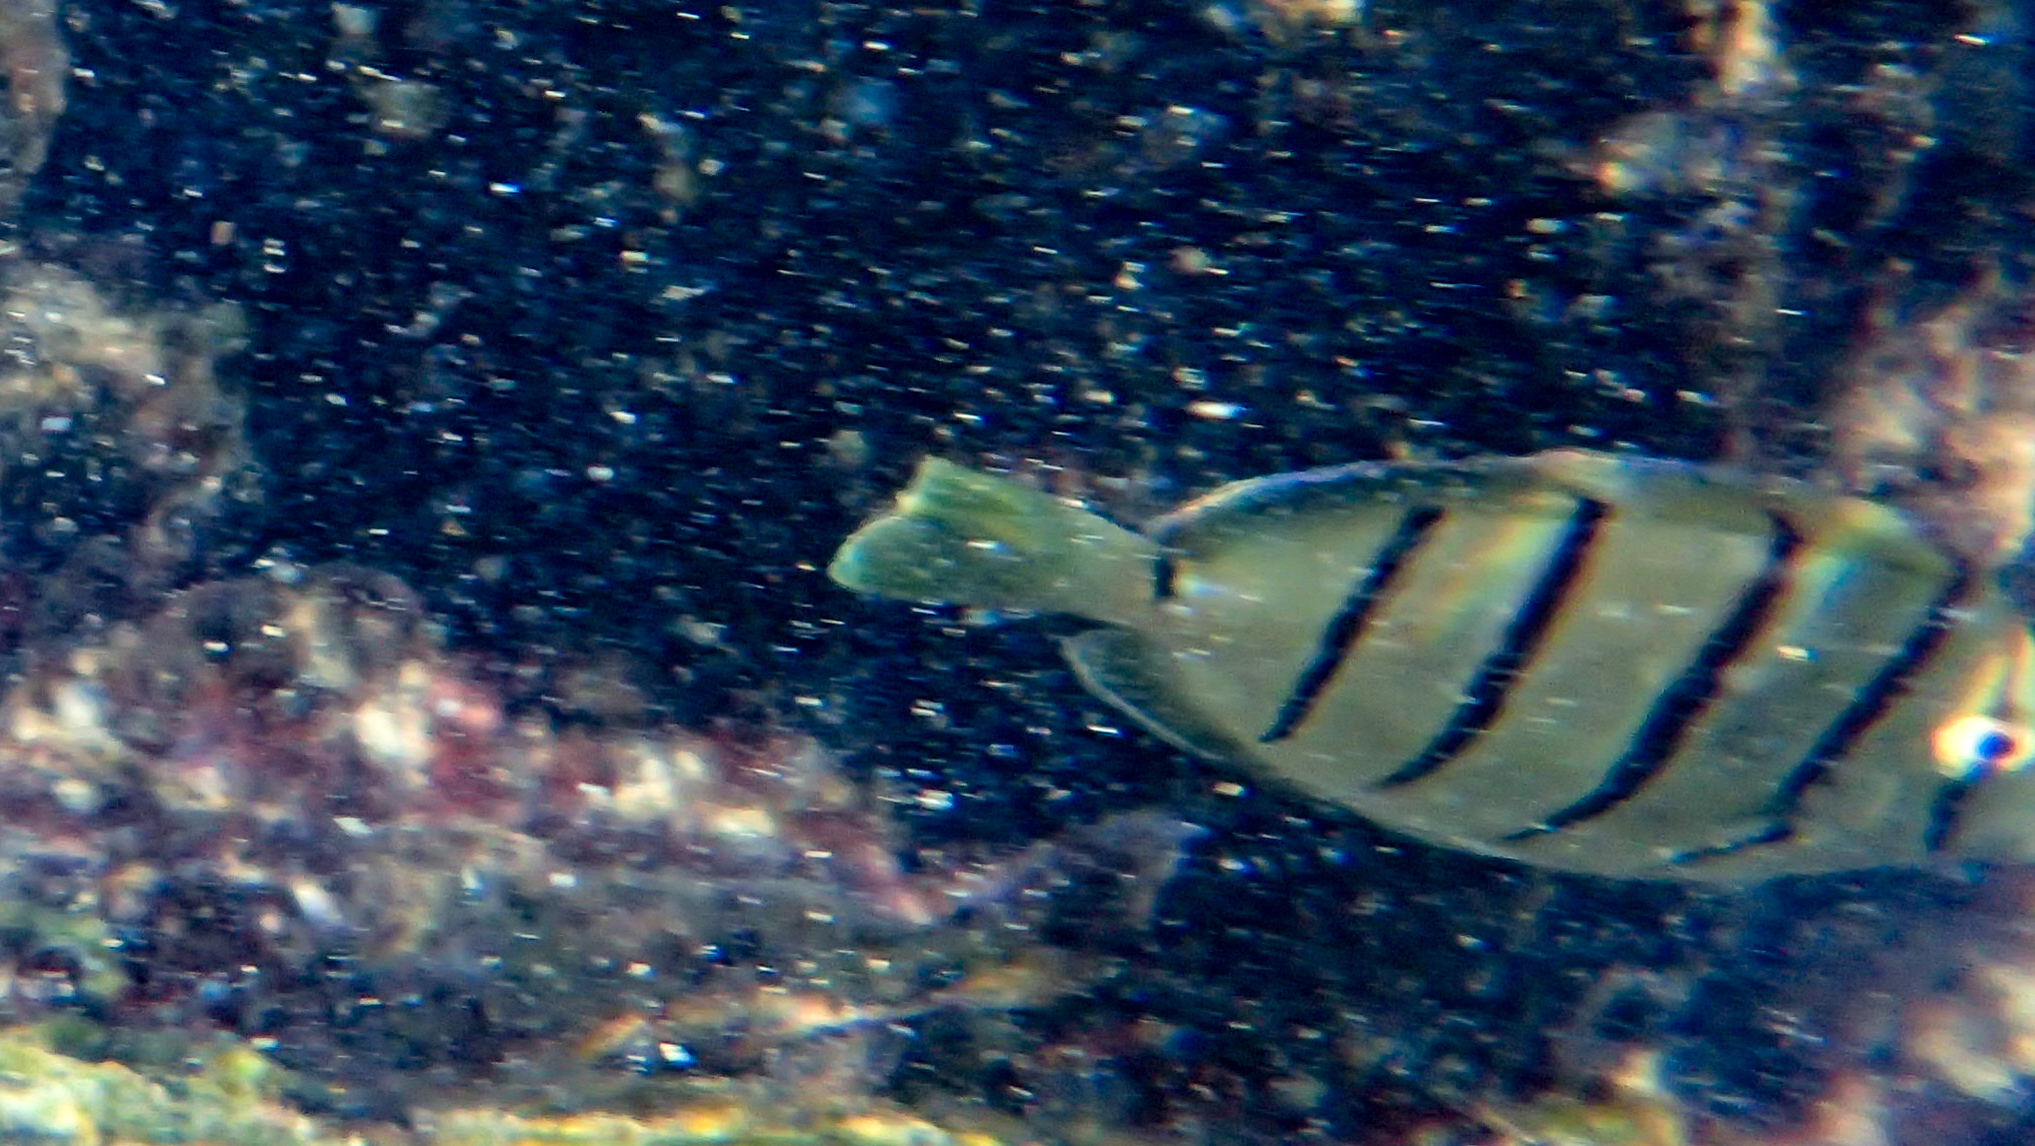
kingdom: Animalia
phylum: Chordata
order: Perciformes
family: Acanthuridae
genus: Acanthurus
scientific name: Acanthurus triostegus
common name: Convict surgeonfish
